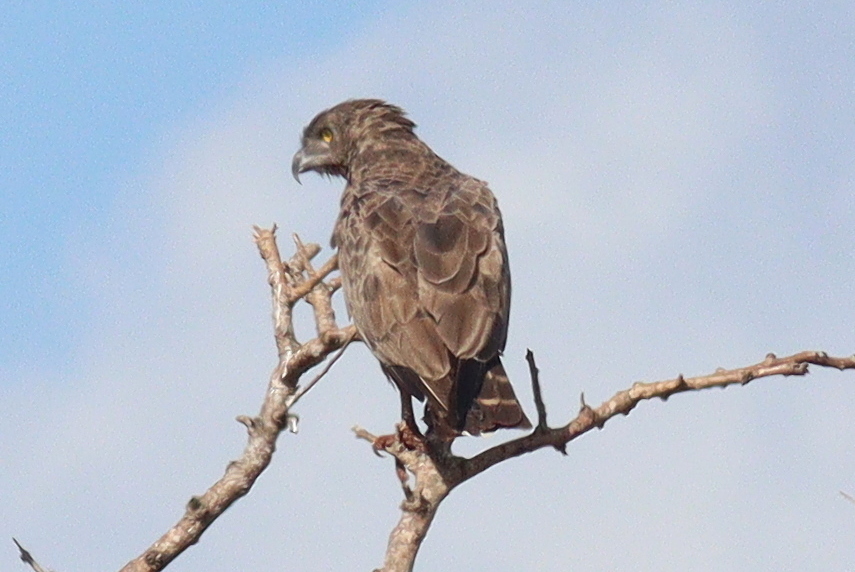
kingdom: Animalia
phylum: Chordata
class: Aves
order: Accipitriformes
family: Accipitridae
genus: Circaetus
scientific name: Circaetus cinereus
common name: Brown snake eagle
